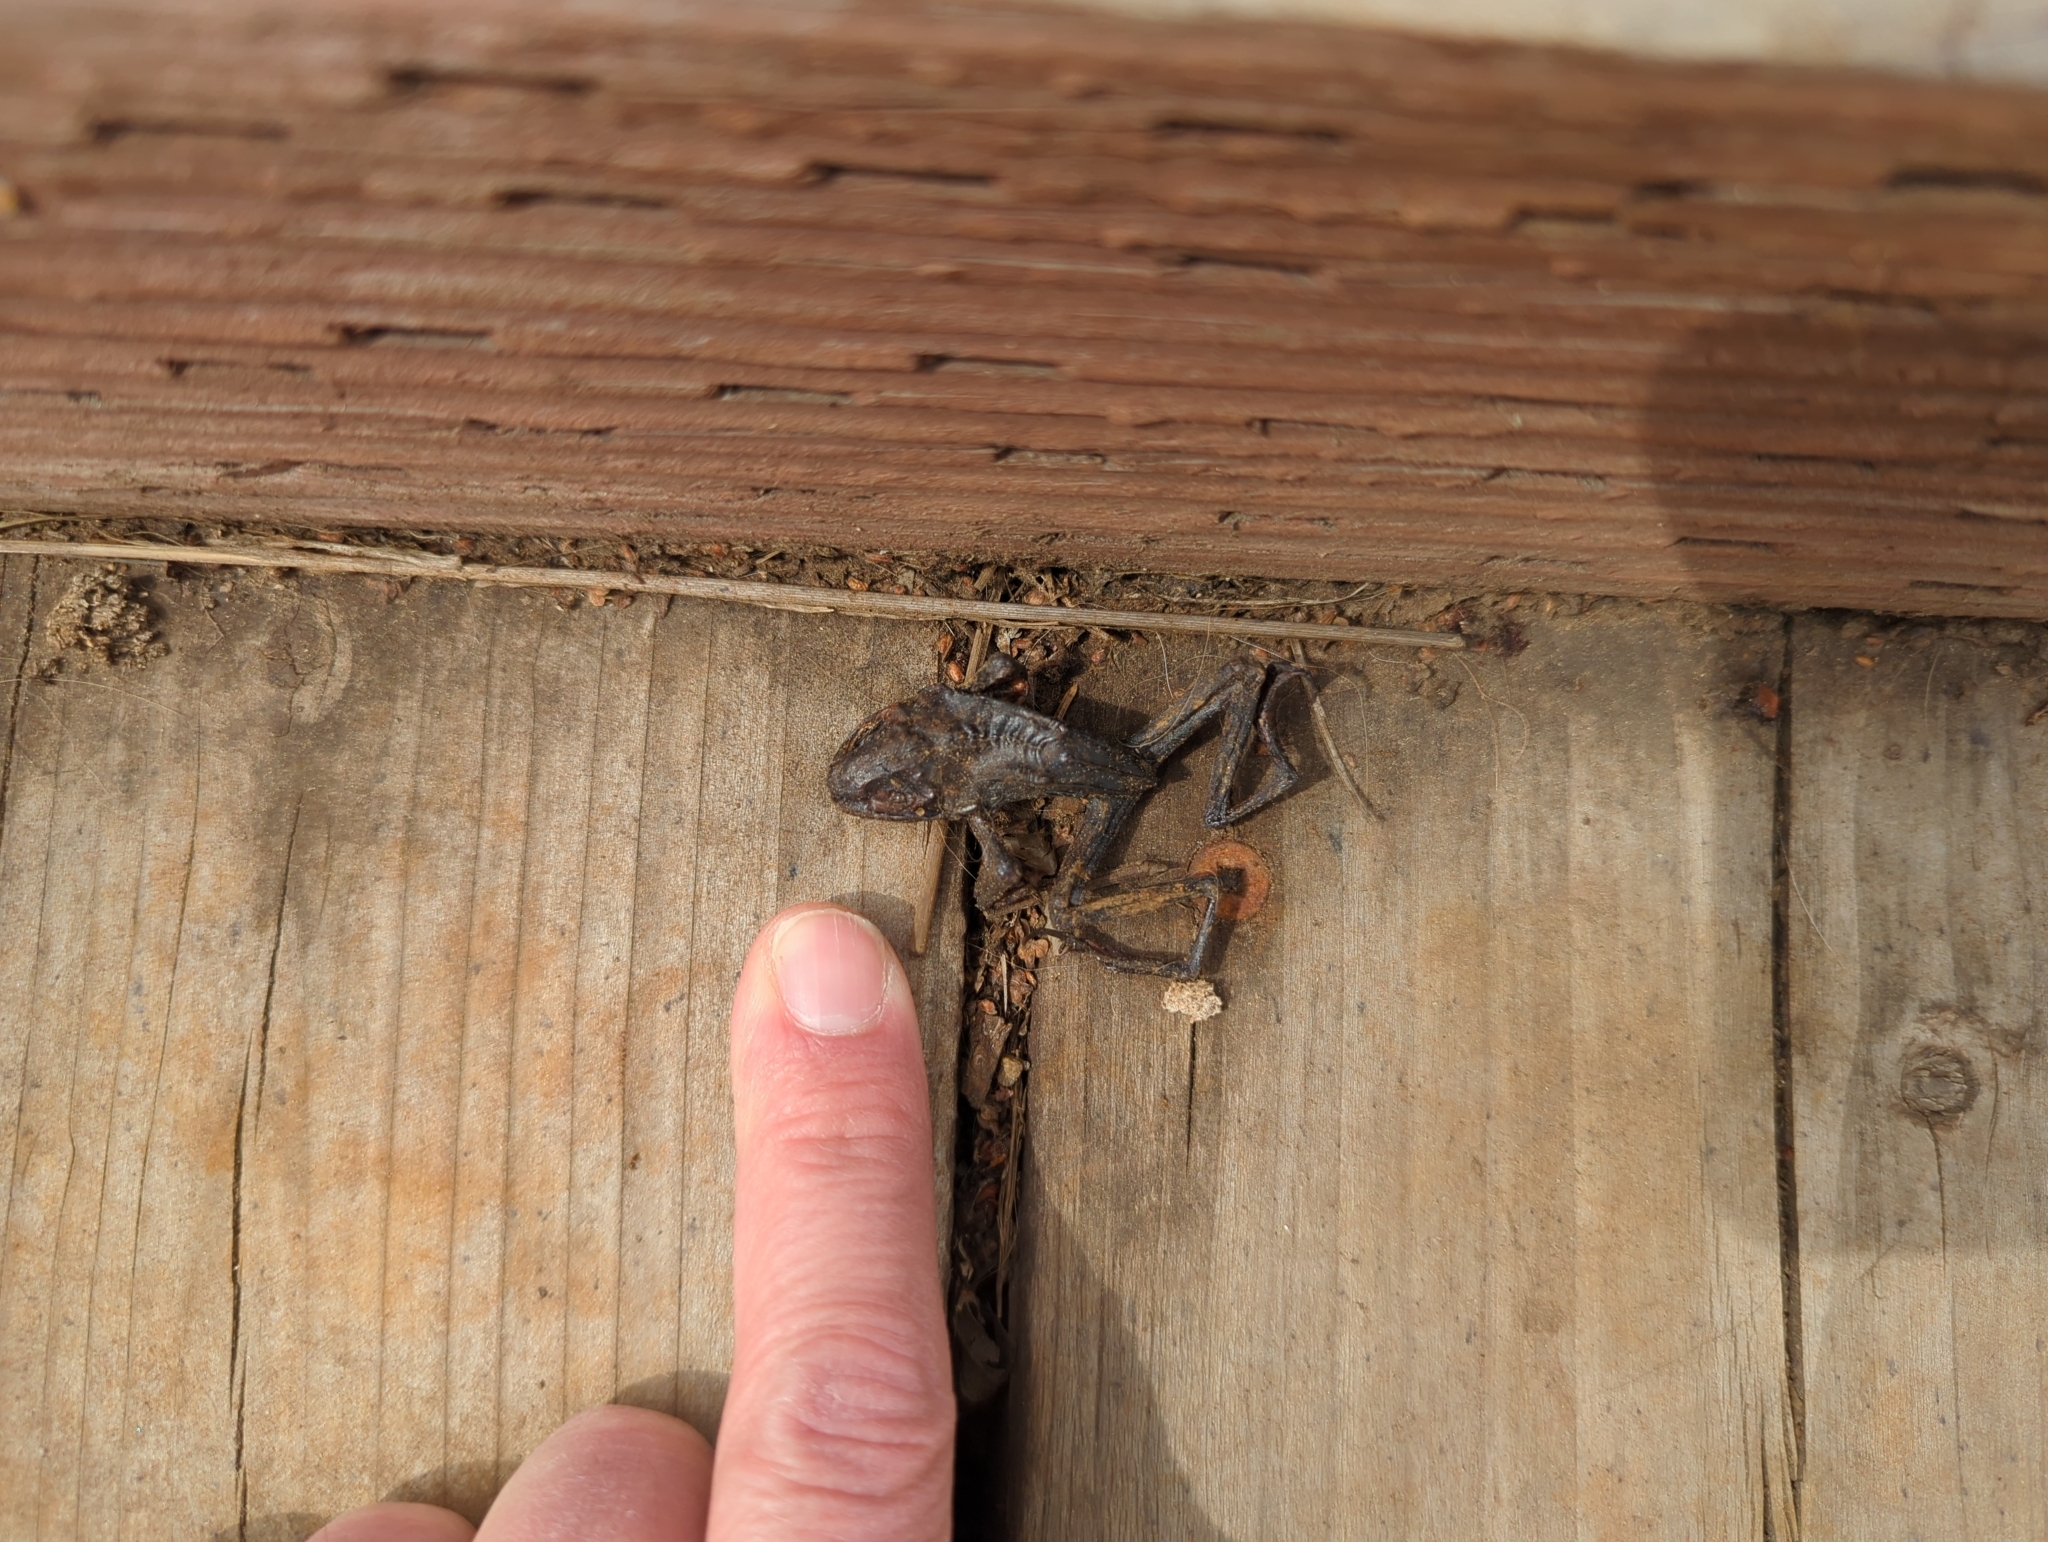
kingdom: Animalia
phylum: Chordata
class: Amphibia
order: Anura
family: Ranidae
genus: Lithobates
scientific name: Lithobates sylvaticus
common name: Wood frog
